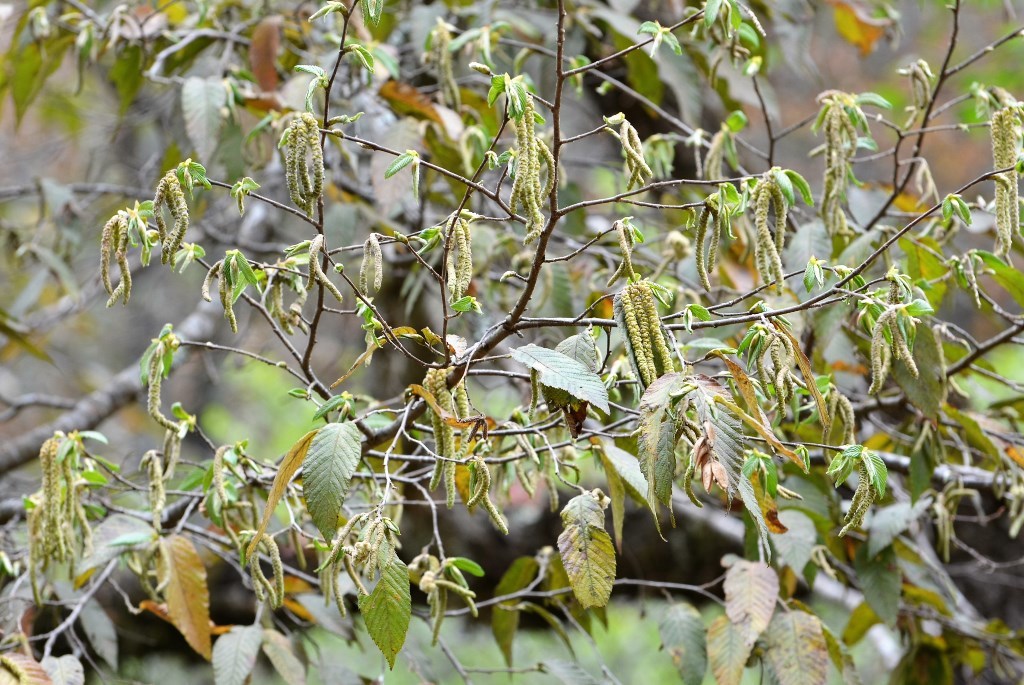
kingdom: Plantae
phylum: Tracheophyta
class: Magnoliopsida
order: Fagales
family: Betulaceae
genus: Alnus
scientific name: Alnus acuminata
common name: Alder
